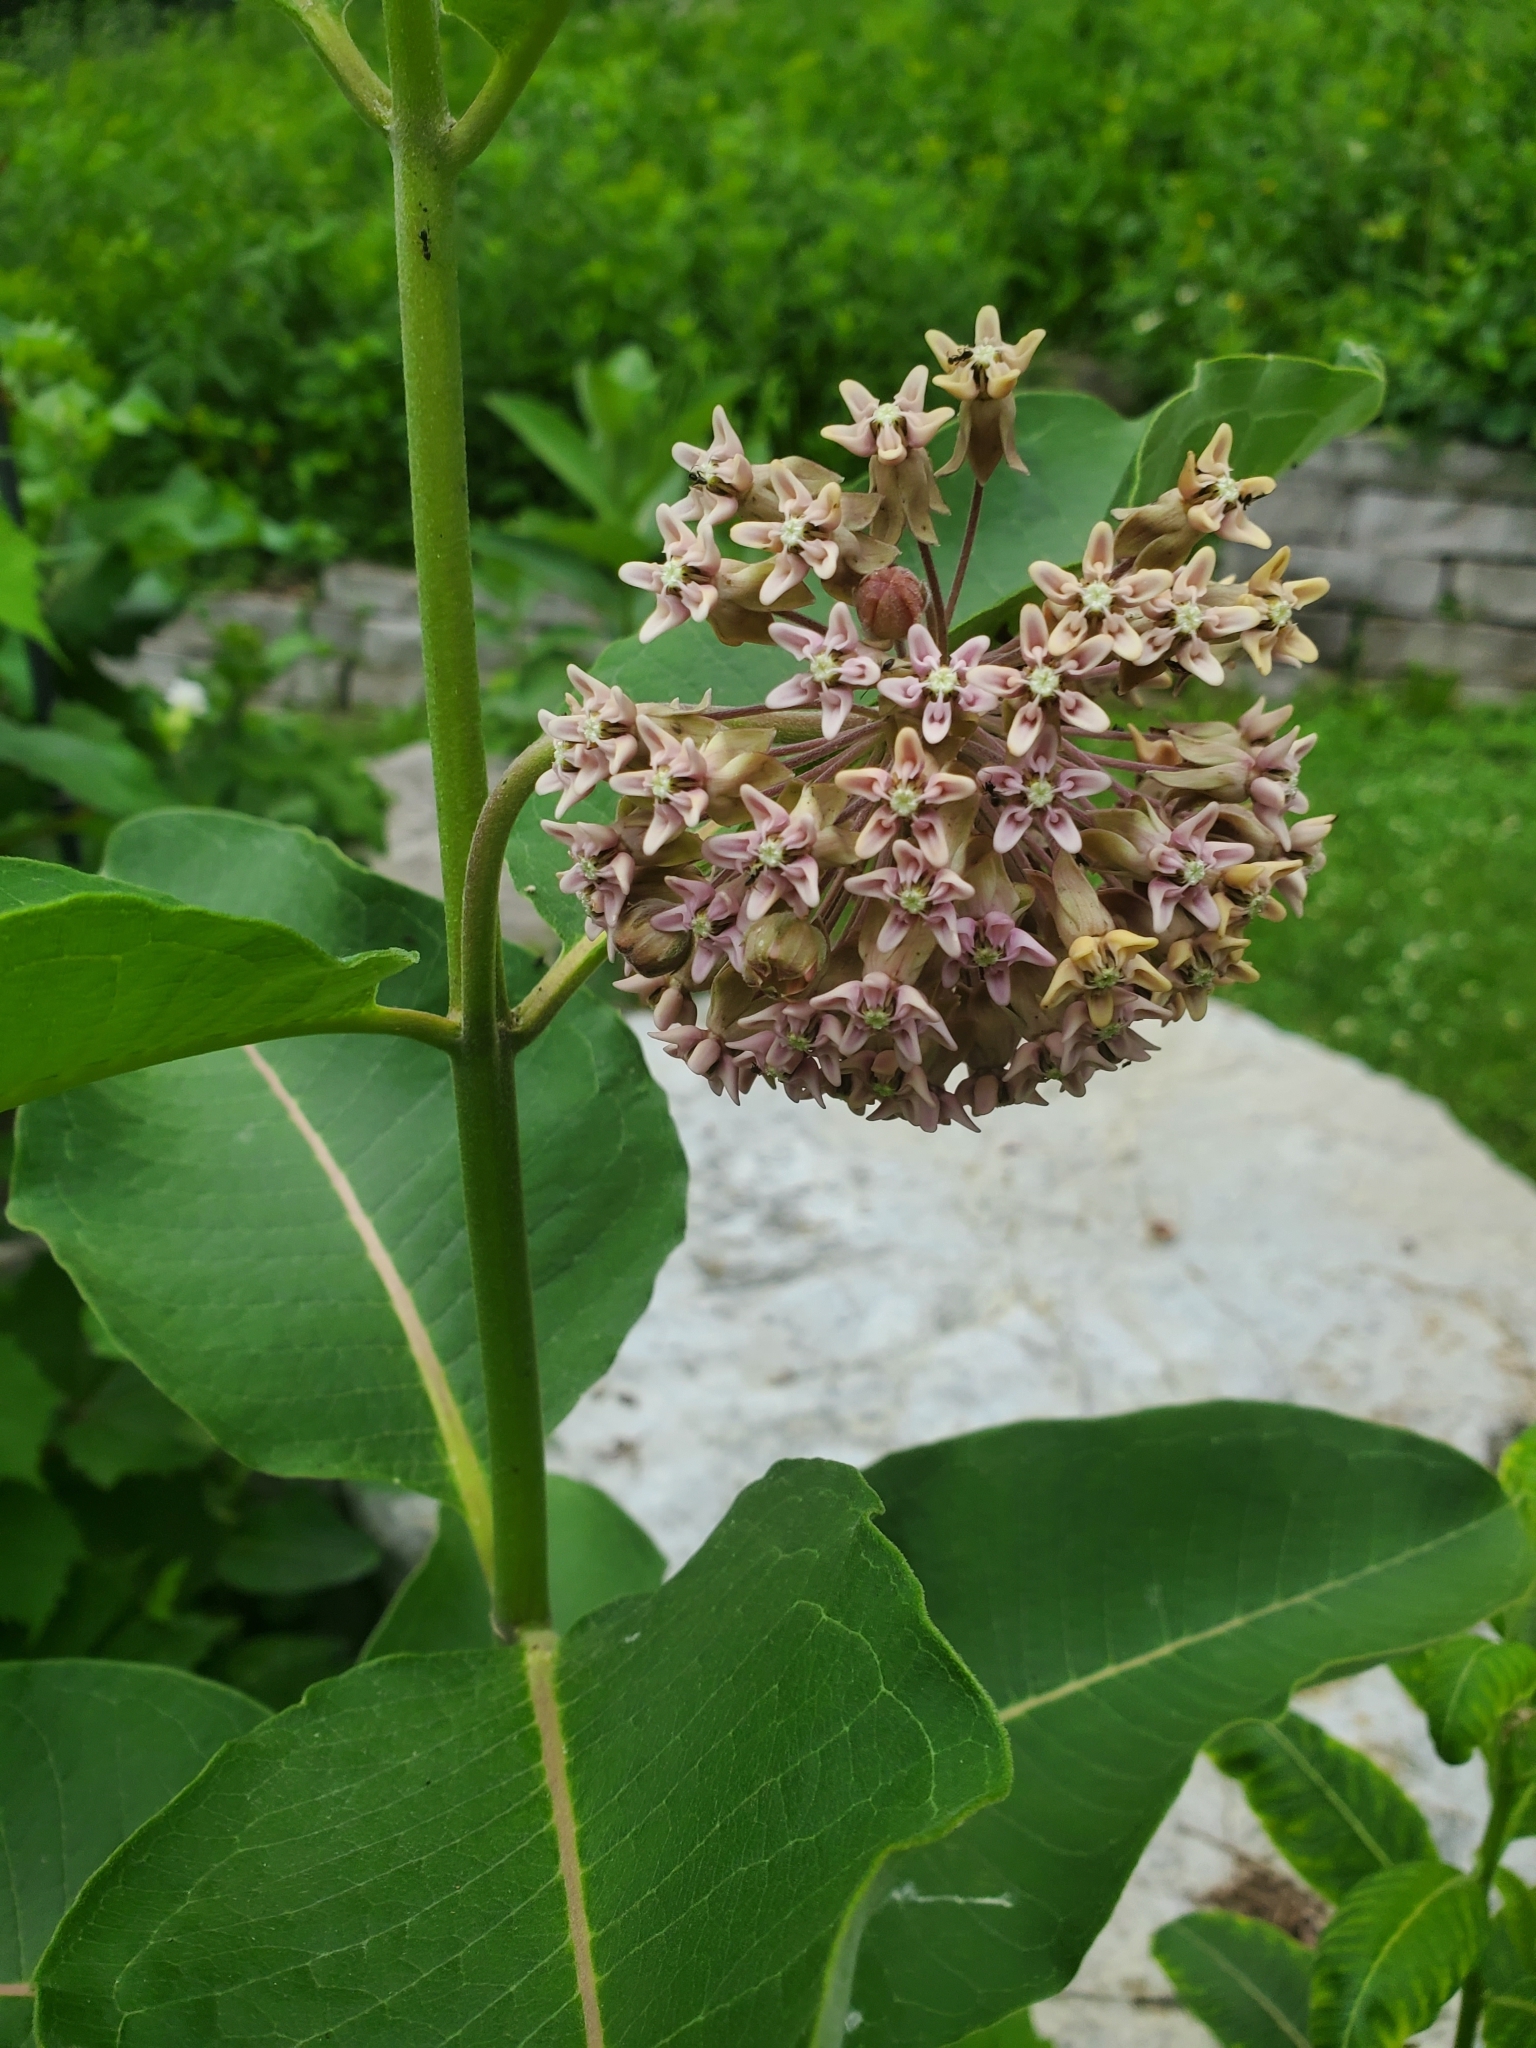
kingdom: Plantae
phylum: Tracheophyta
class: Magnoliopsida
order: Gentianales
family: Apocynaceae
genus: Asclepias
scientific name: Asclepias syriaca
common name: Common milkweed
